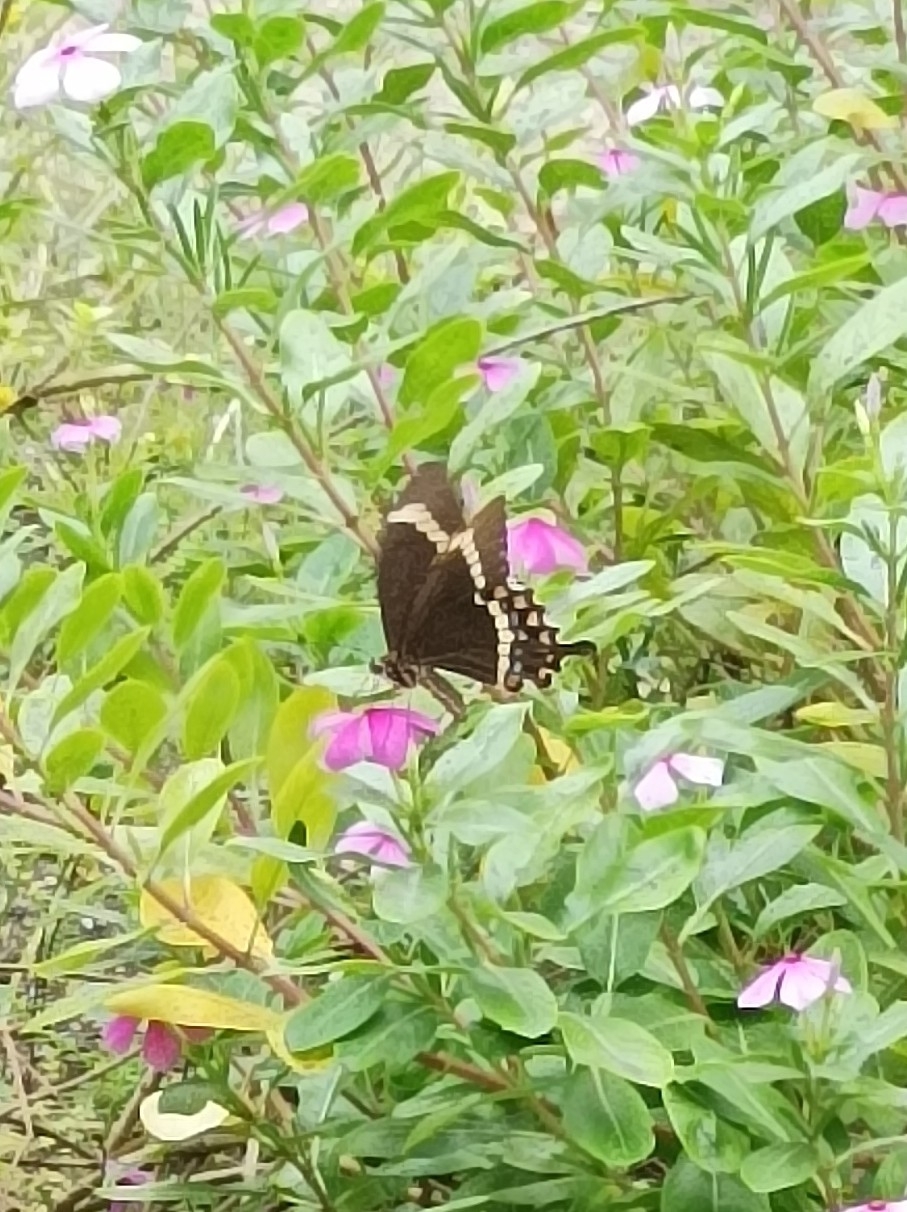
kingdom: Animalia
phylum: Arthropoda
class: Insecta
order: Lepidoptera
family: Papilionidae
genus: Papilio
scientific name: Papilio fuscus
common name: Fuscous swallowtail
